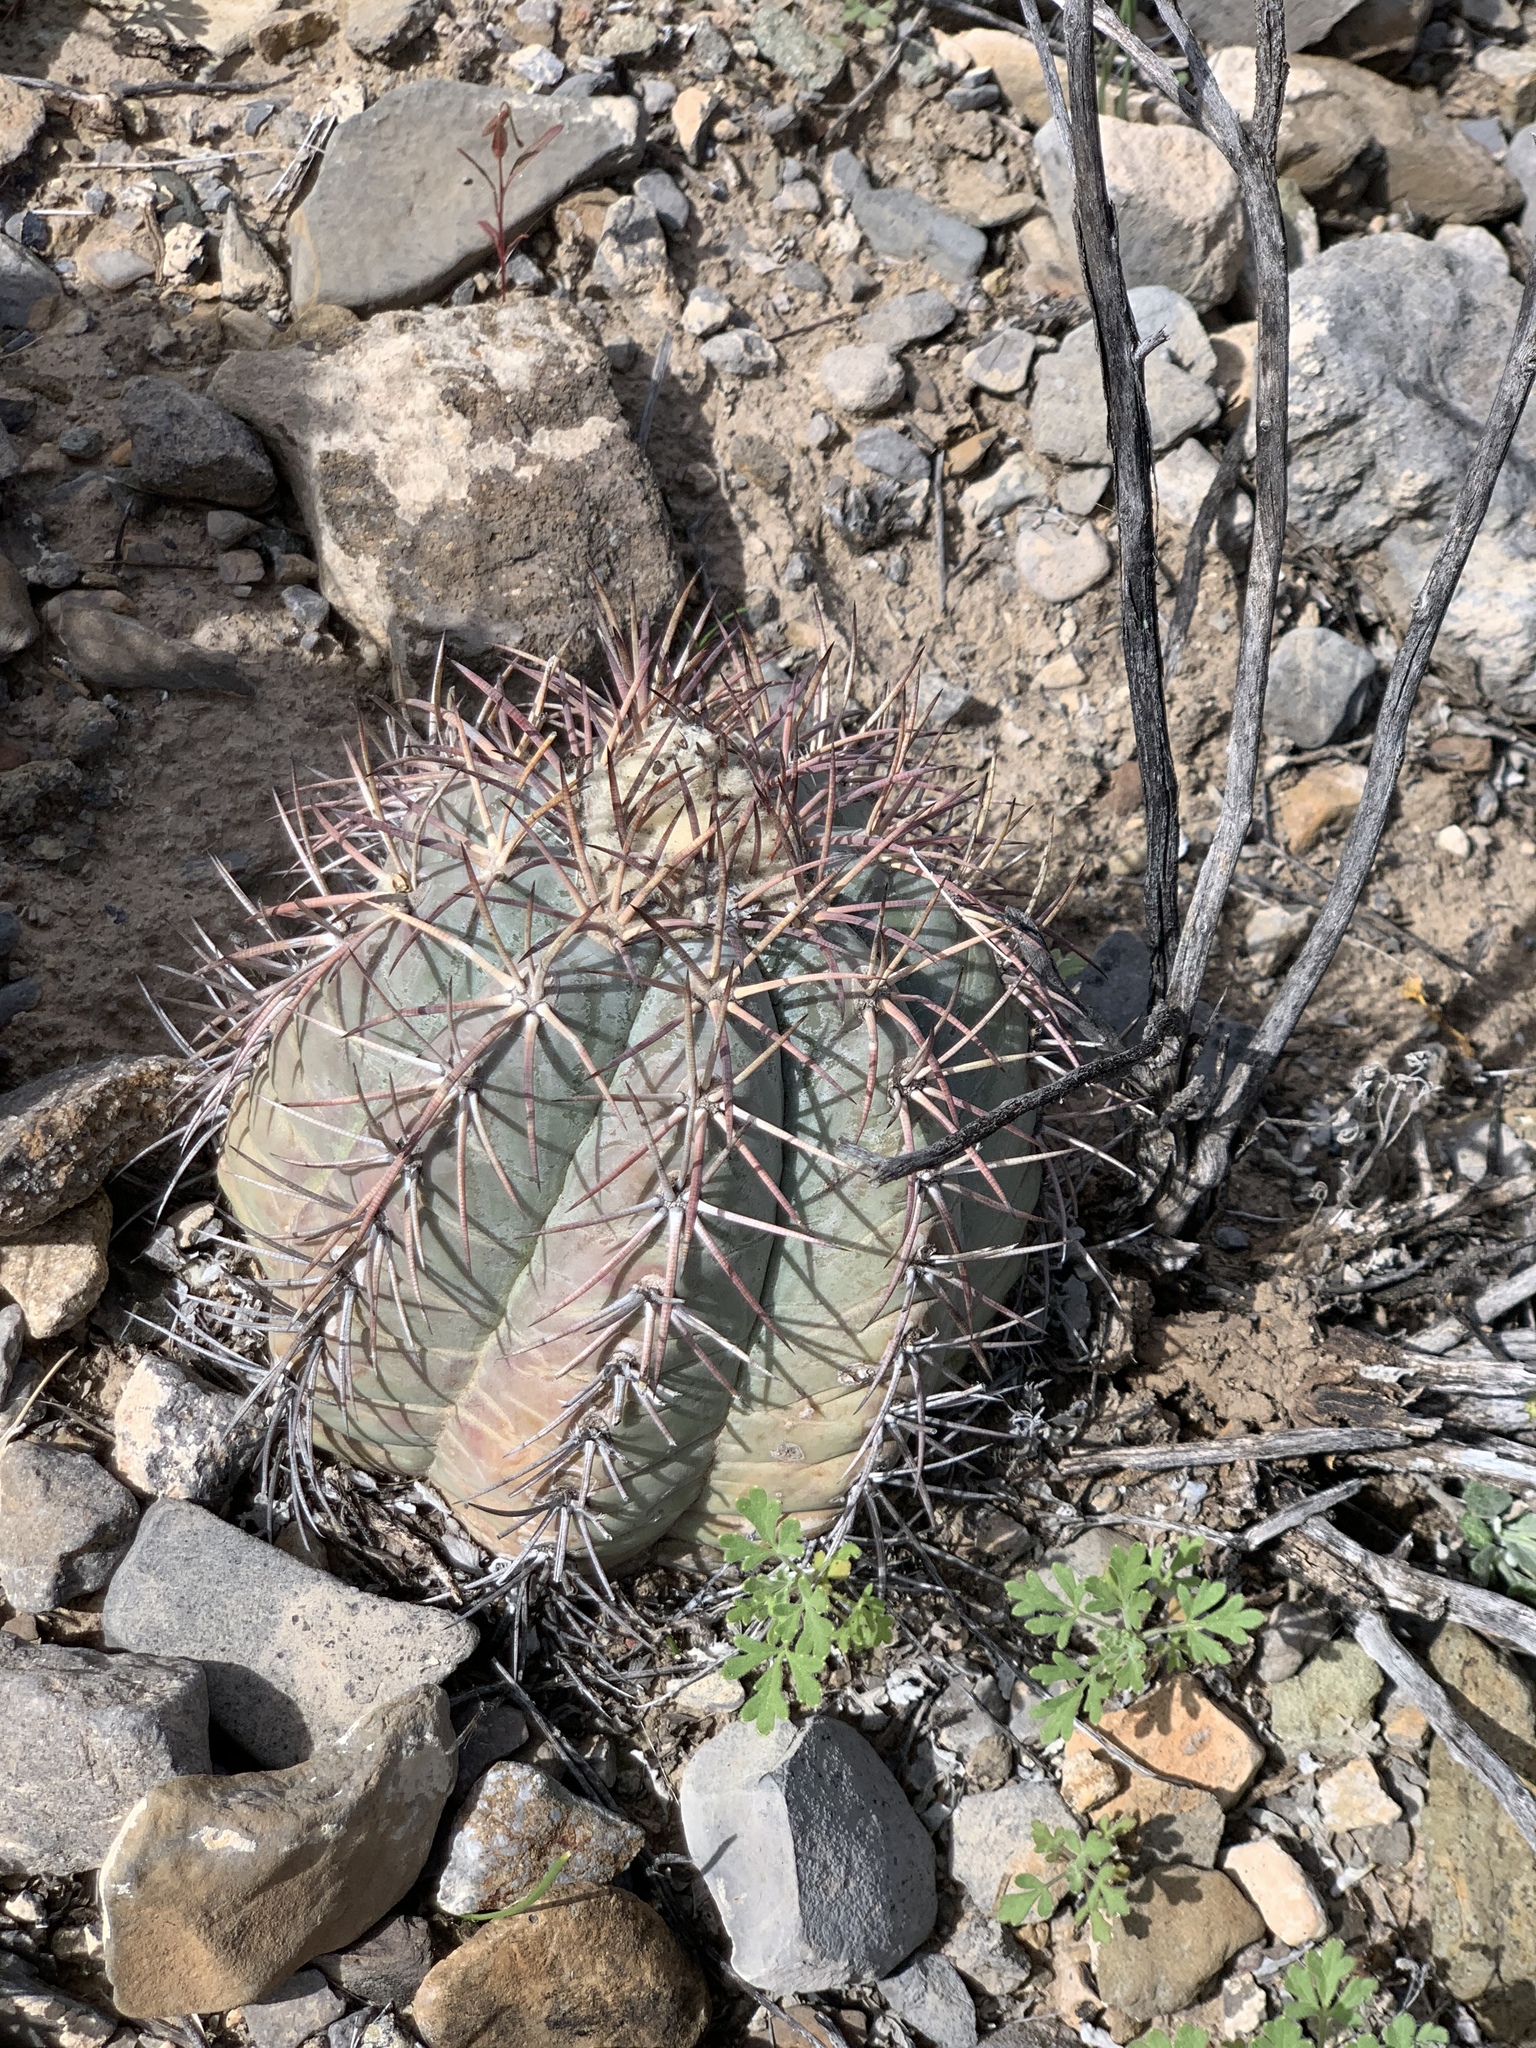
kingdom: Plantae
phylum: Tracheophyta
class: Magnoliopsida
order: Caryophyllales
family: Cactaceae
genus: Echinocactus
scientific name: Echinocactus horizonthalonius
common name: Devilshead
